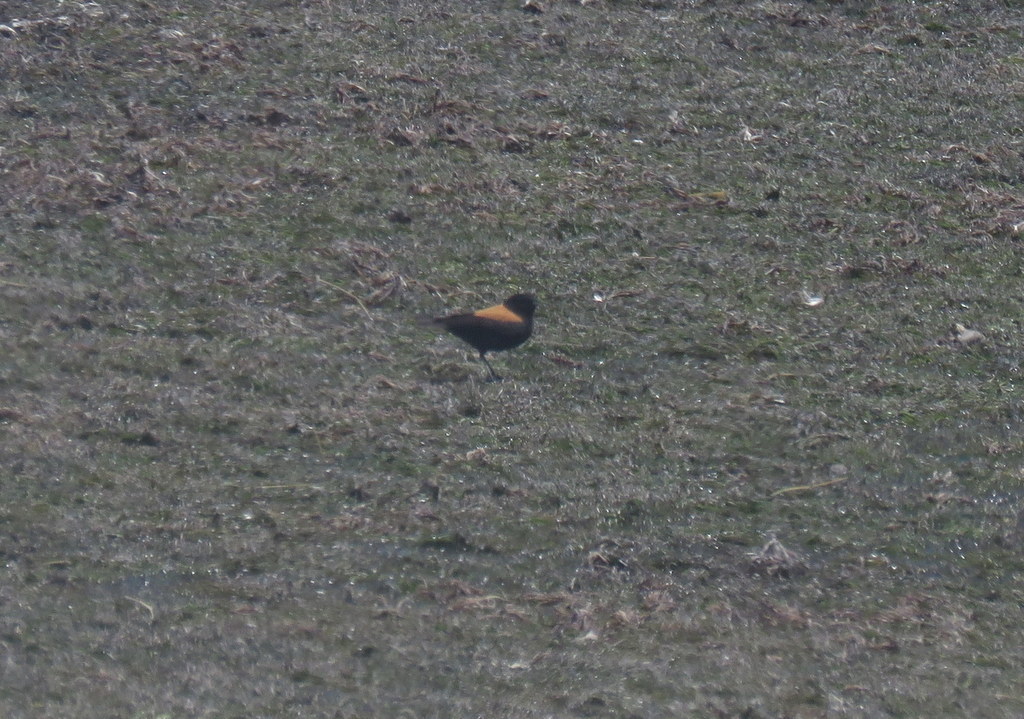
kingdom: Animalia
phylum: Chordata
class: Aves
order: Passeriformes
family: Tyrannidae
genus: Lessonia
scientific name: Lessonia oreas
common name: Andean negrito
